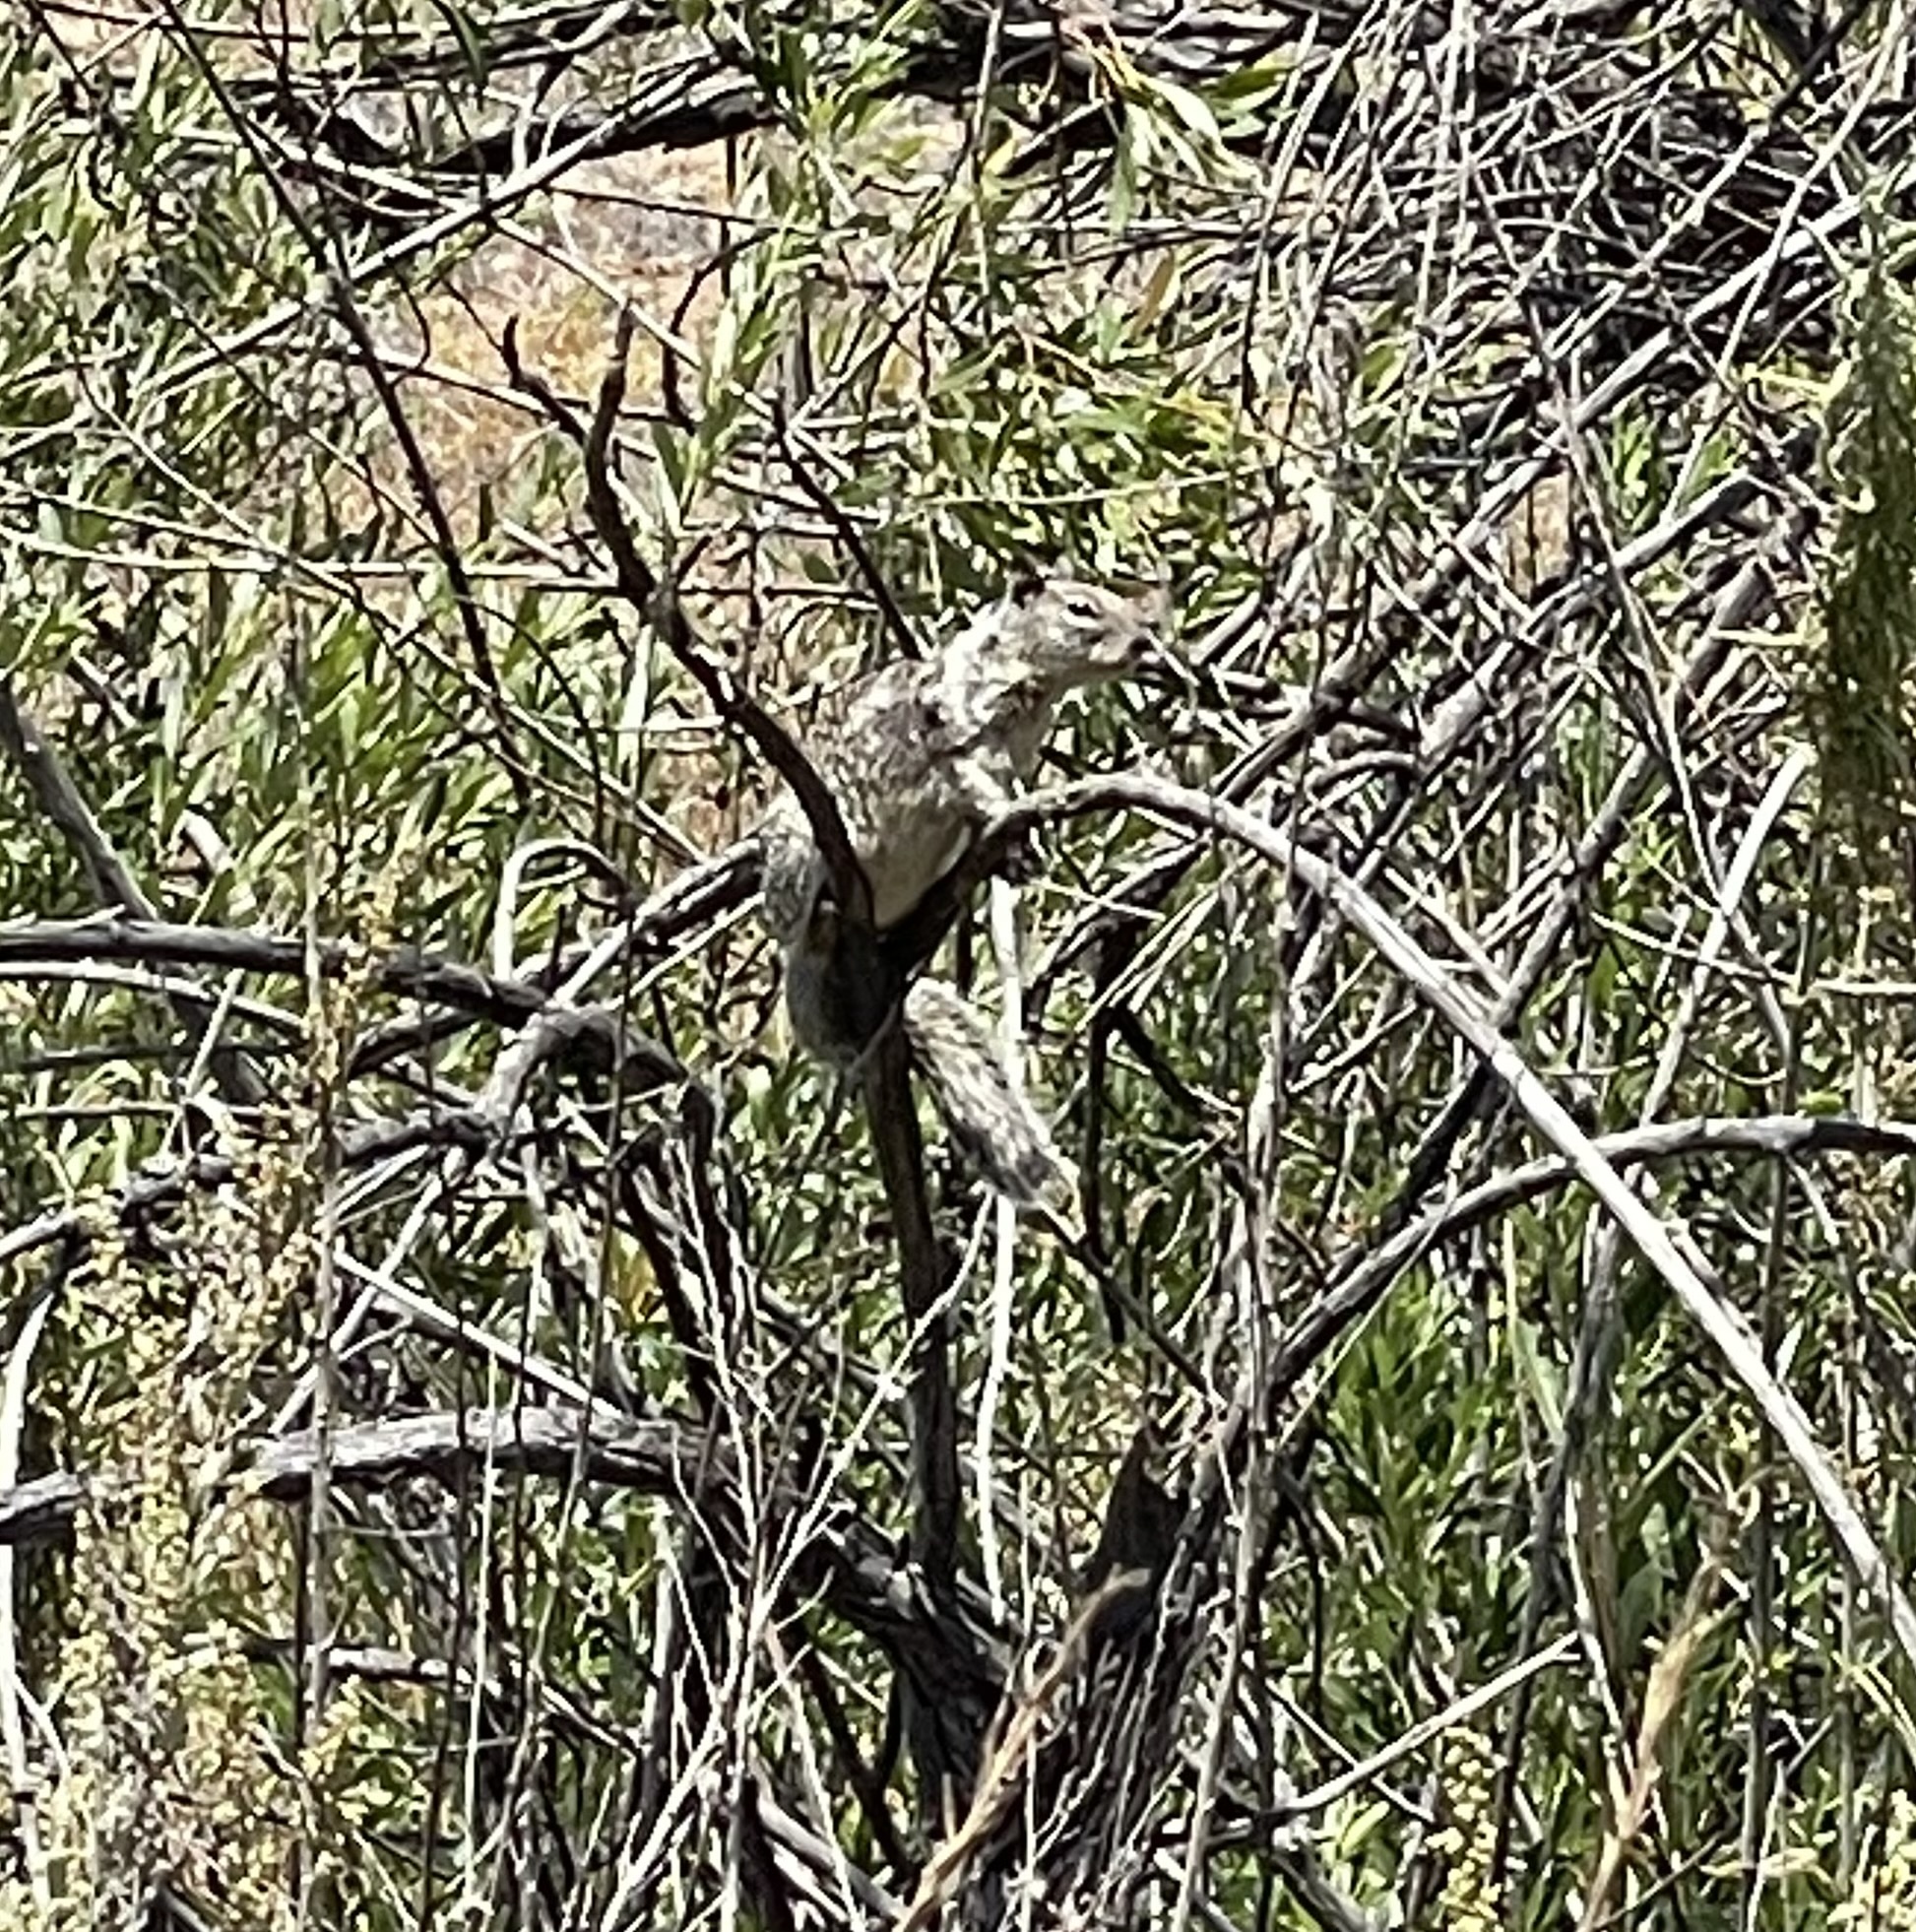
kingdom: Animalia
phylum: Chordata
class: Mammalia
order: Rodentia
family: Sciuridae
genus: Otospermophilus
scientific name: Otospermophilus beecheyi
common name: California ground squirrel
